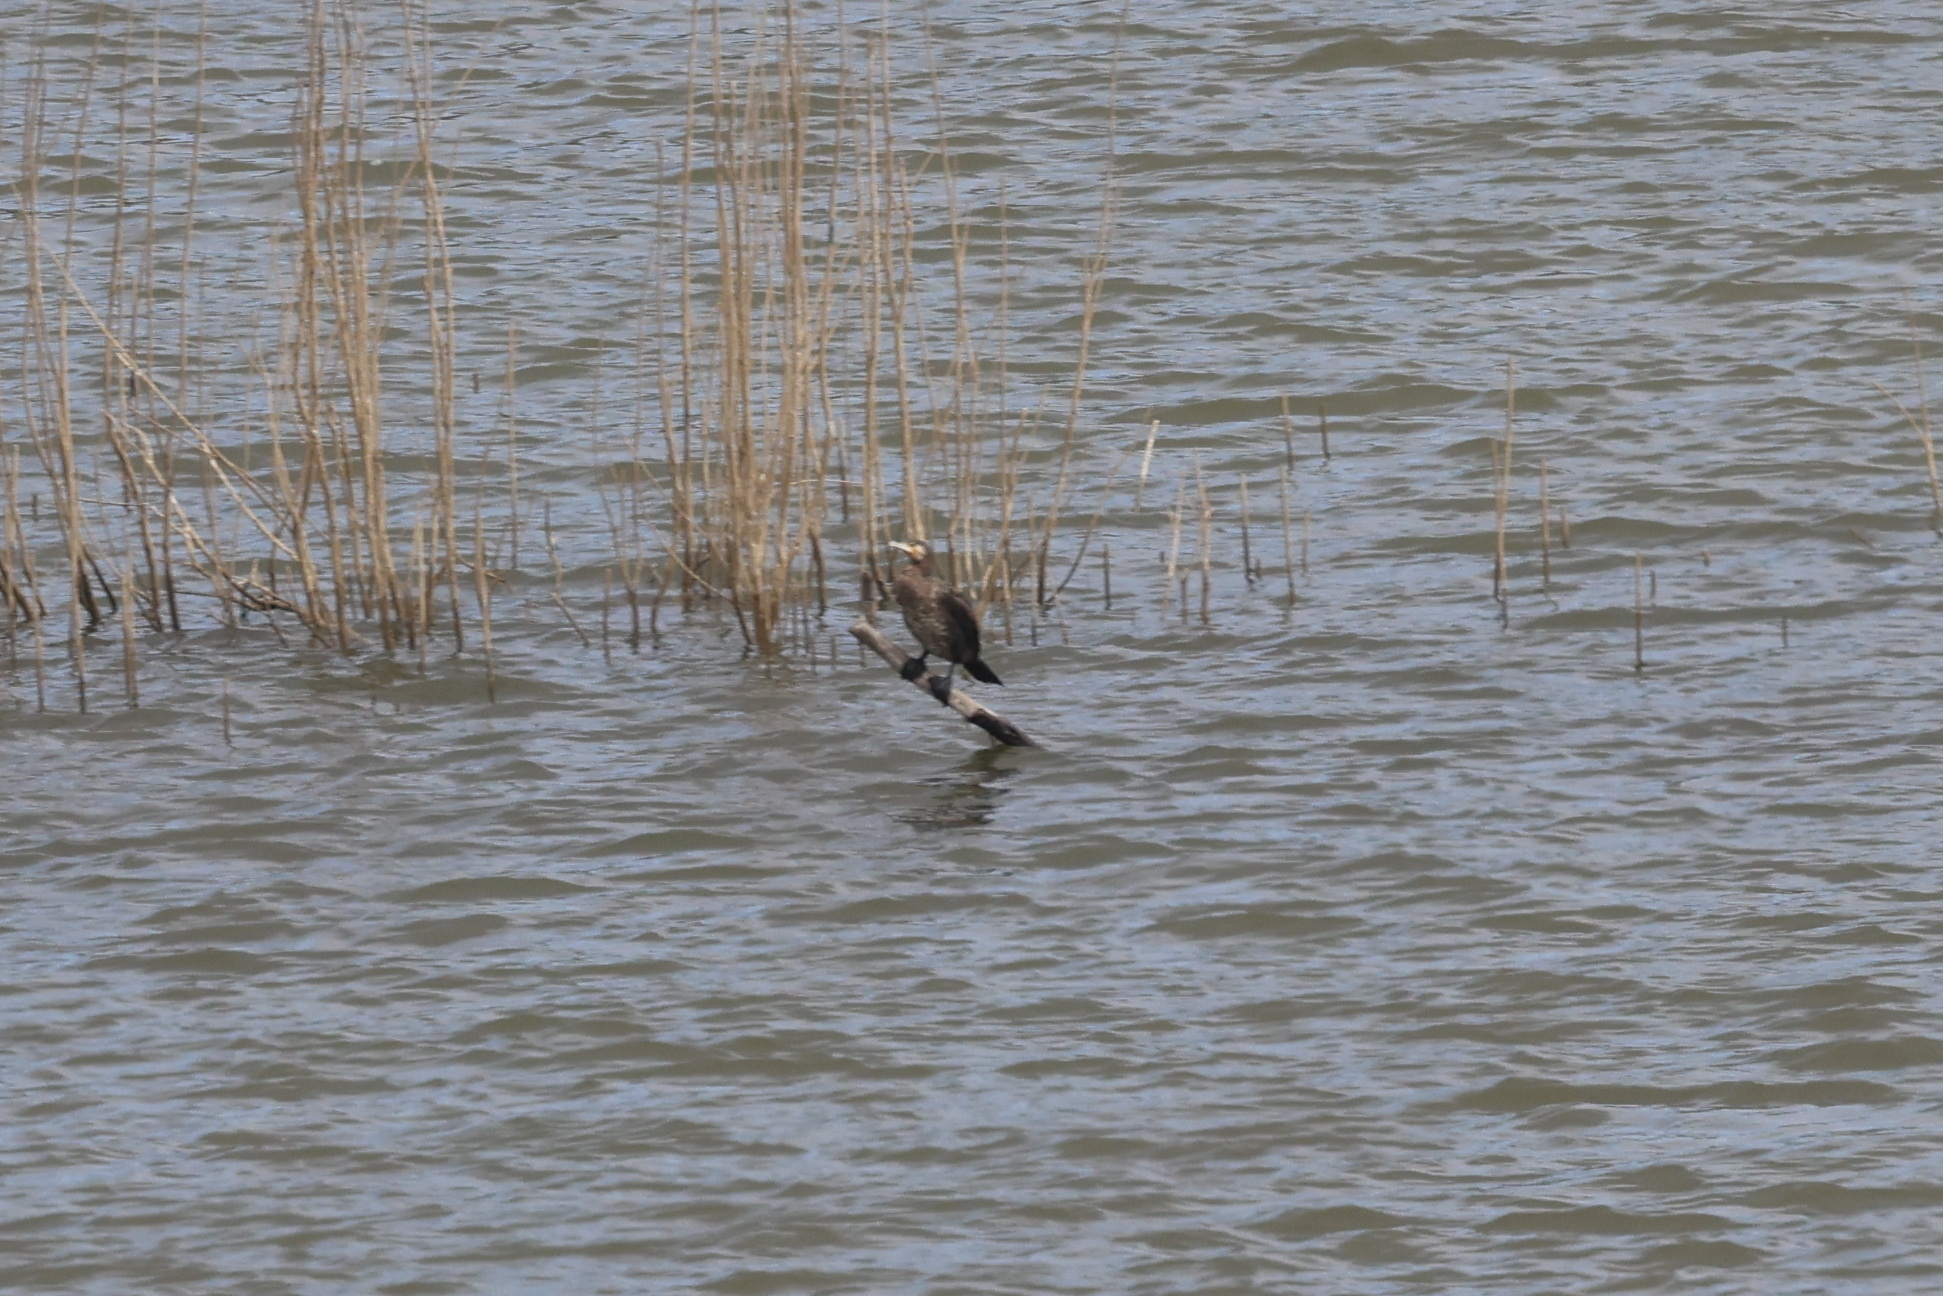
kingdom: Animalia
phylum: Chordata
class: Aves
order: Suliformes
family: Phalacrocoracidae
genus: Phalacrocorax
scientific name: Phalacrocorax carbo
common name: Great cormorant
